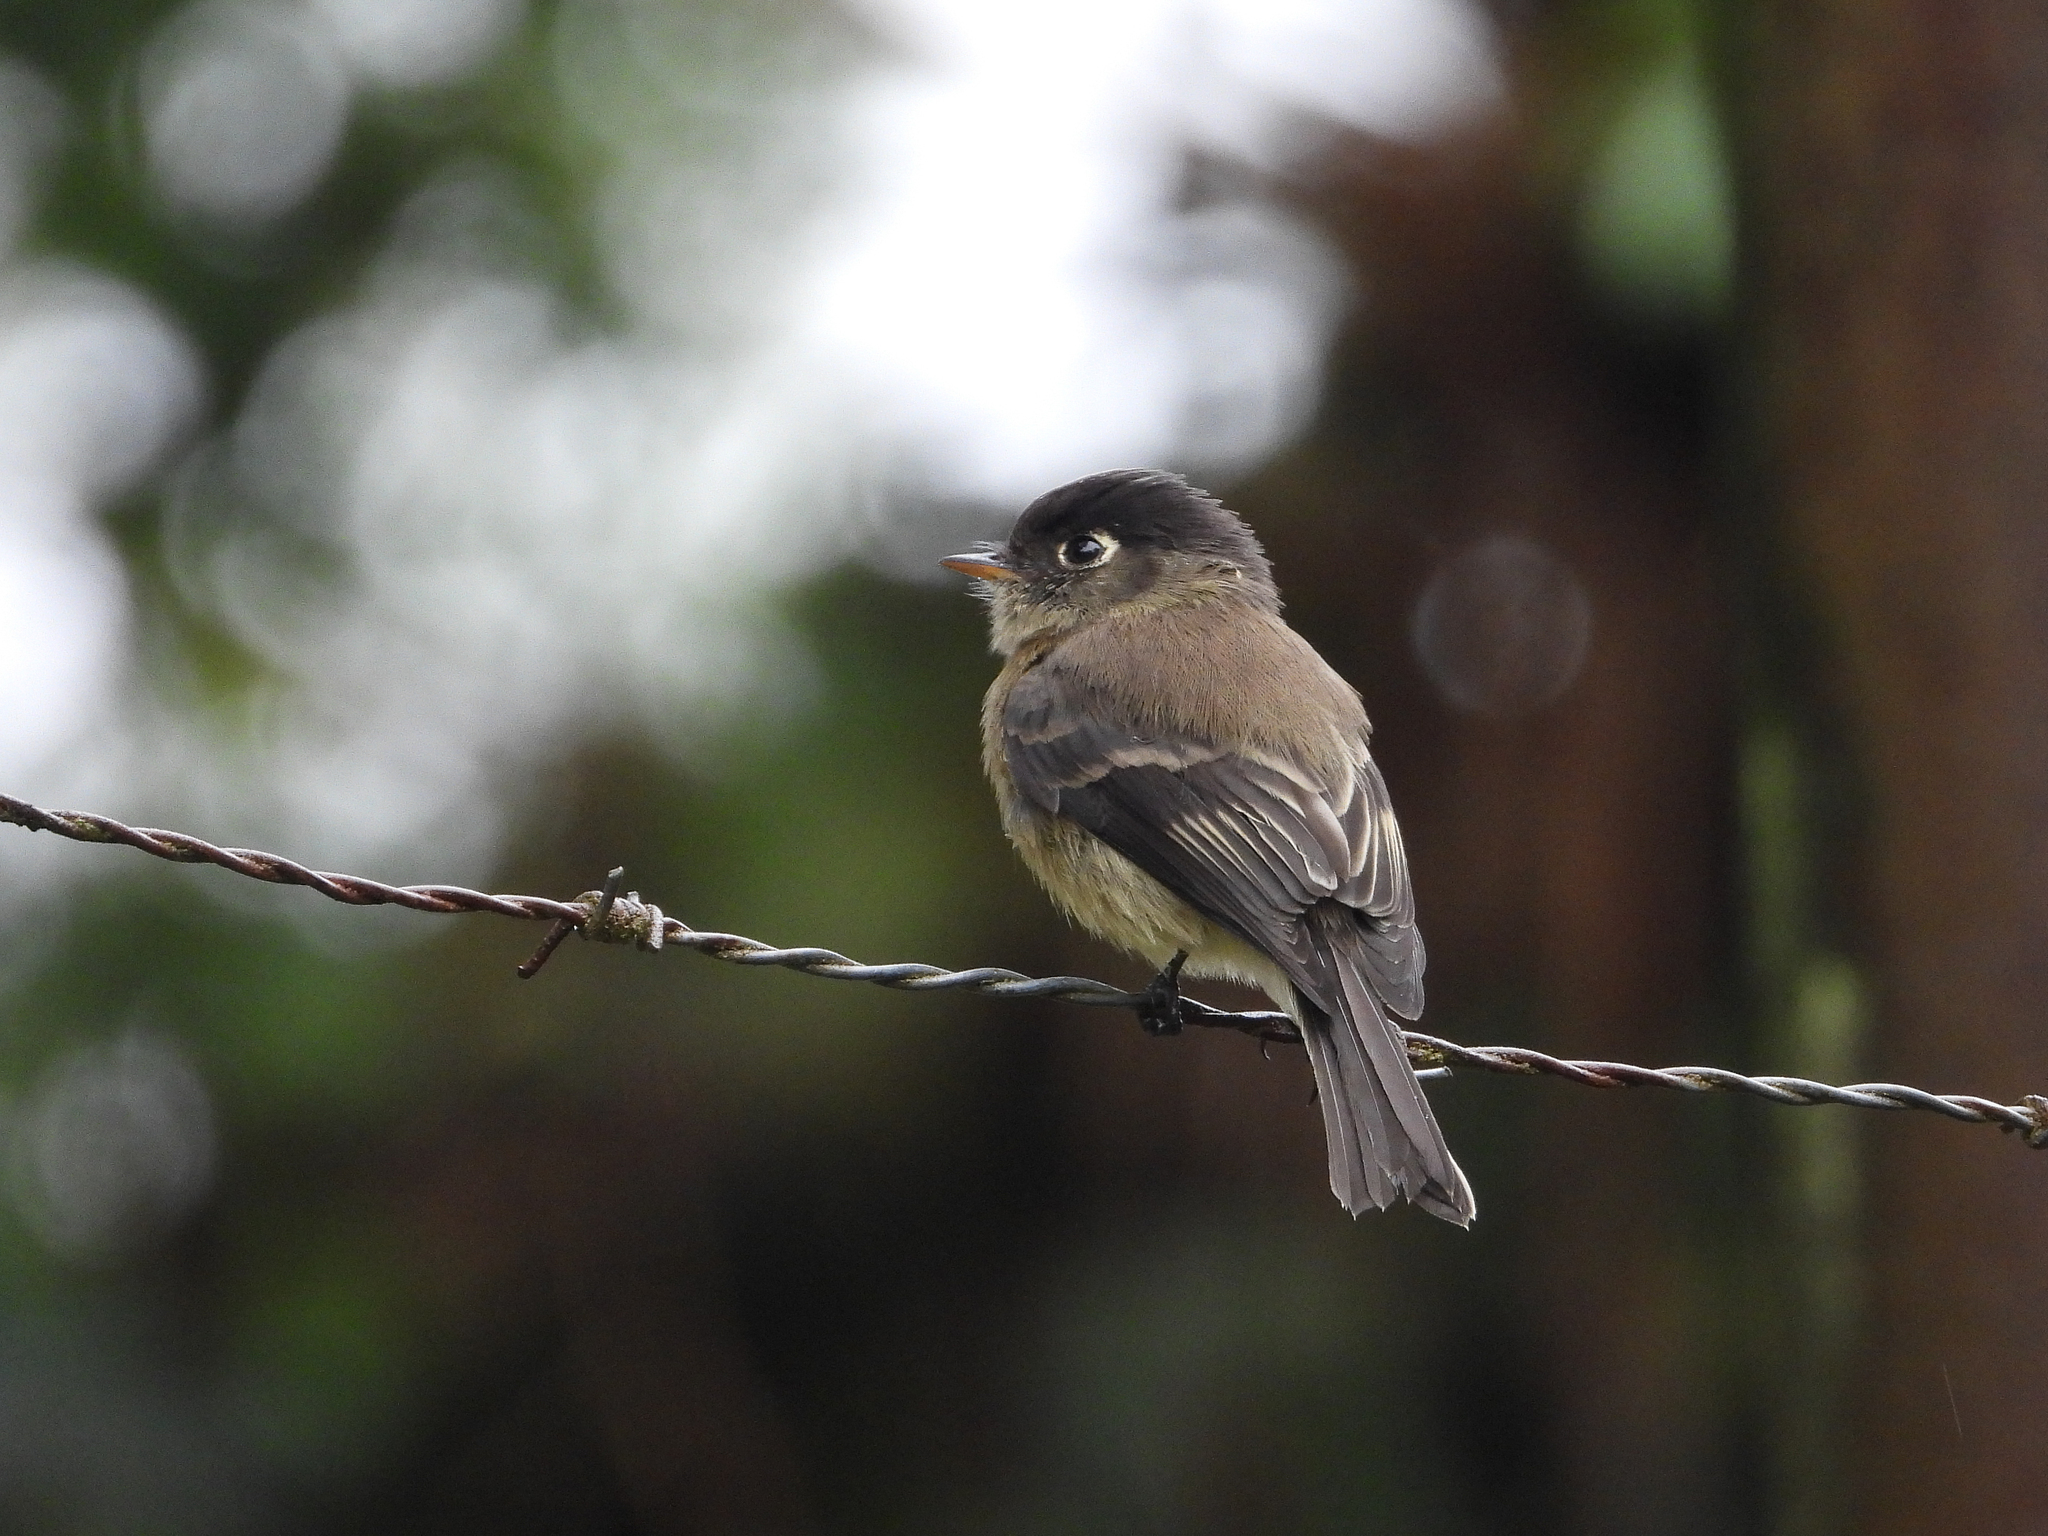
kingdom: Animalia
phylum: Chordata
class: Aves
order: Passeriformes
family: Tyrannidae
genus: Empidonax
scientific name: Empidonax atriceps
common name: Black-capped flycatcher
